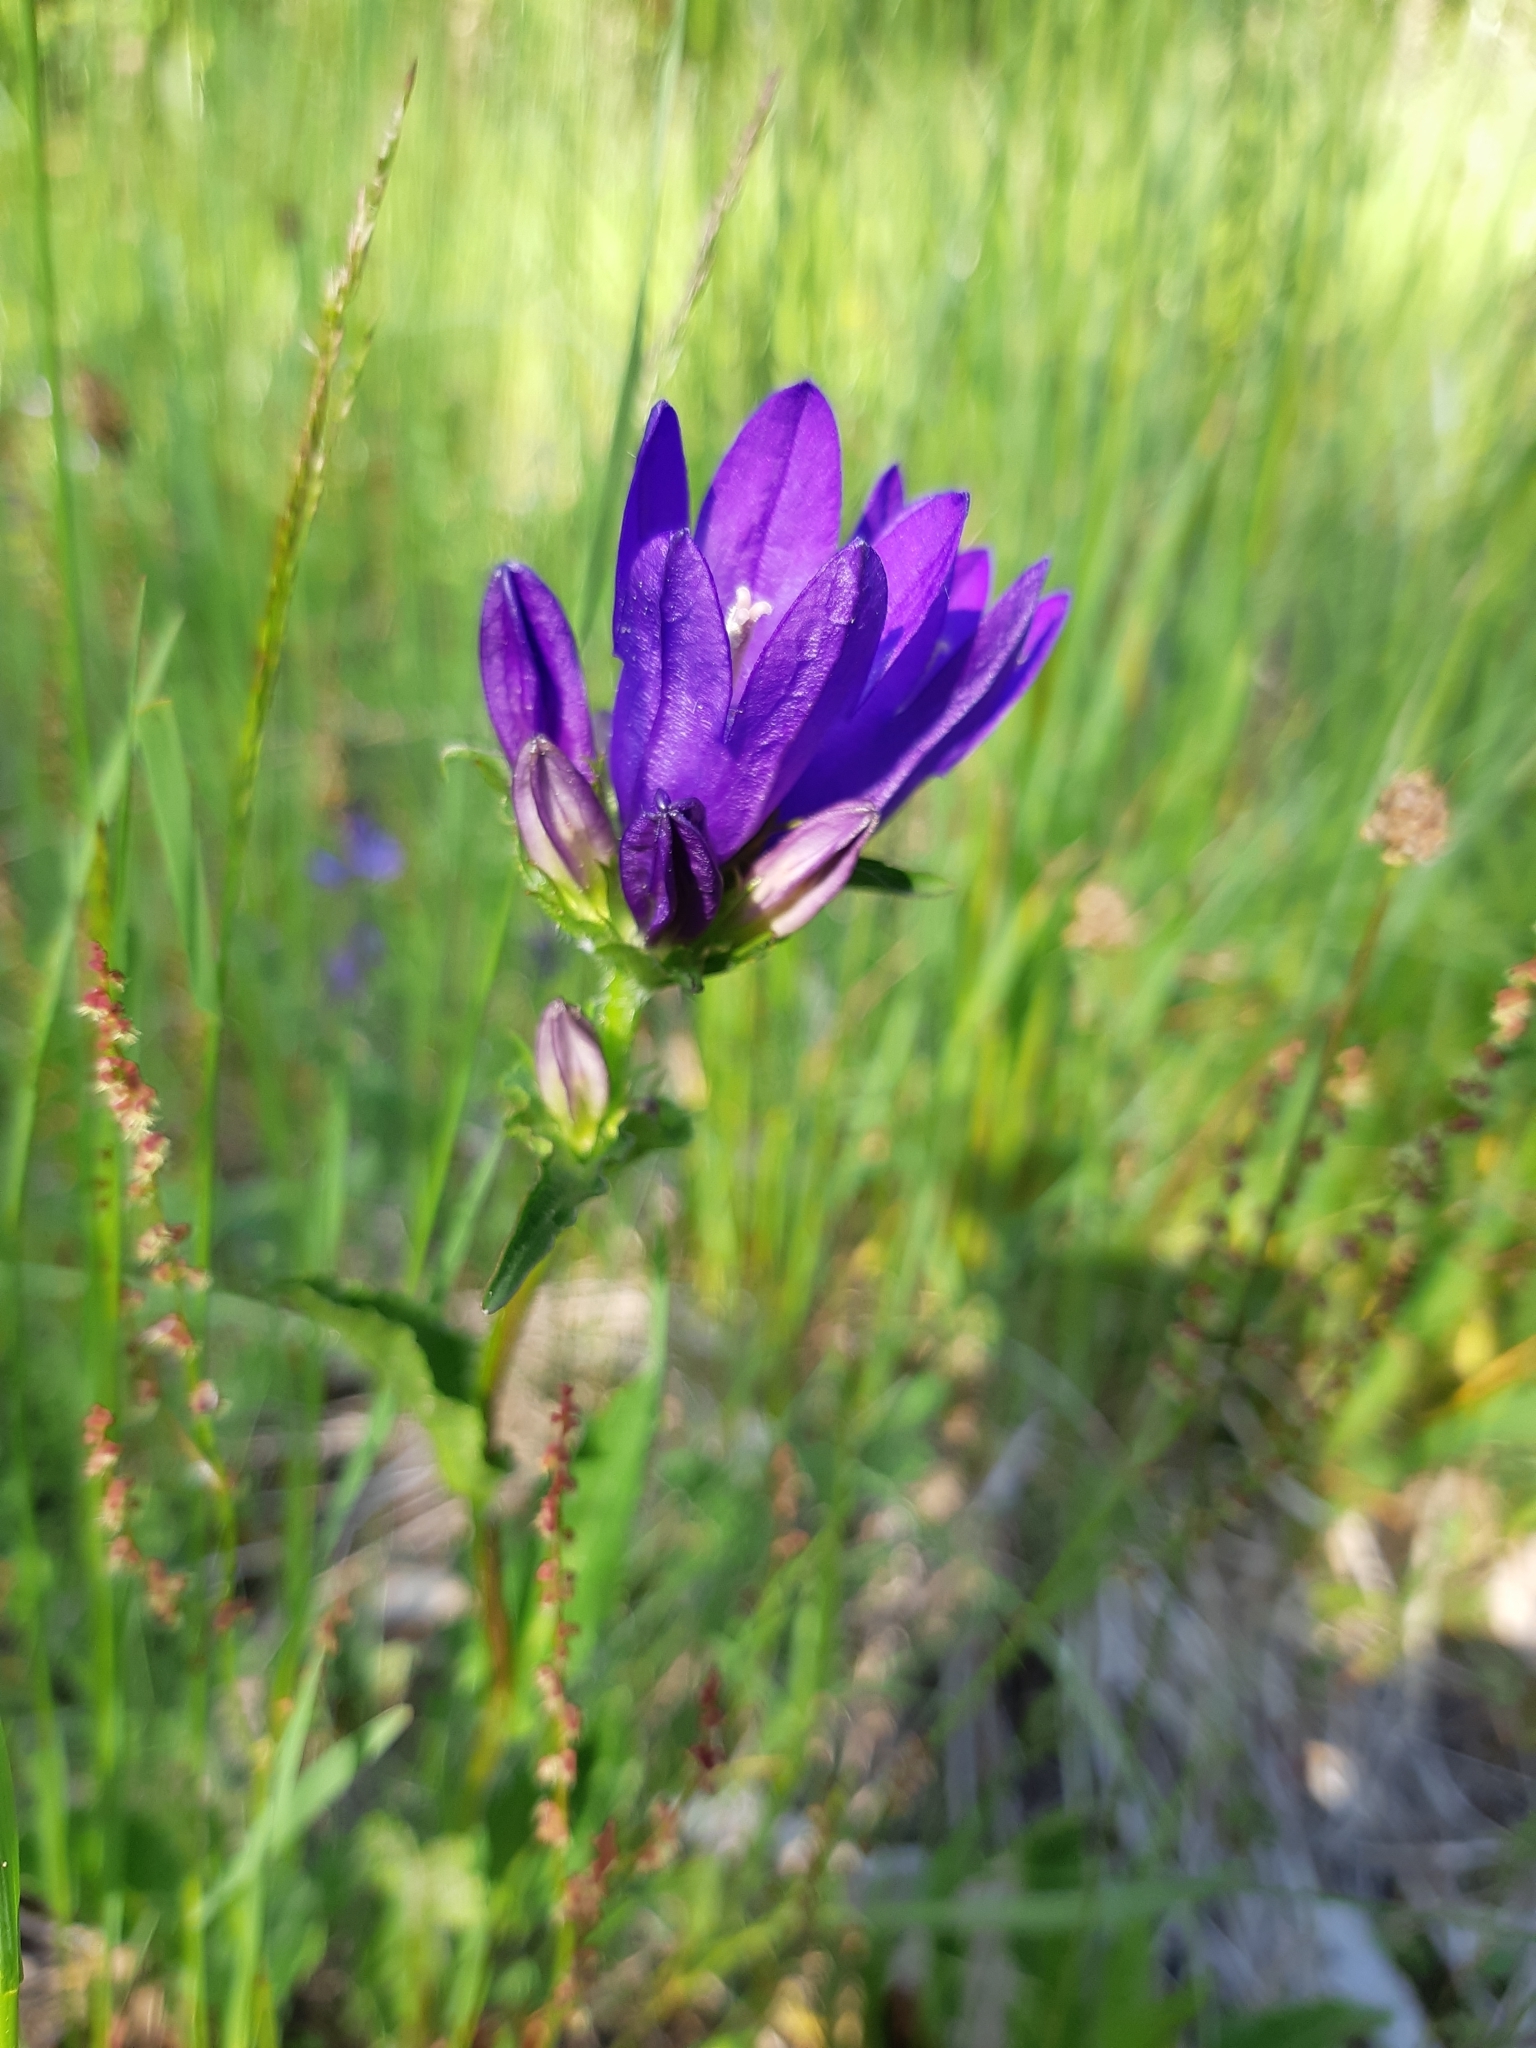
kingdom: Plantae
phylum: Tracheophyta
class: Magnoliopsida
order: Asterales
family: Campanulaceae
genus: Campanula
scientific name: Campanula glomerata
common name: Clustered bellflower
